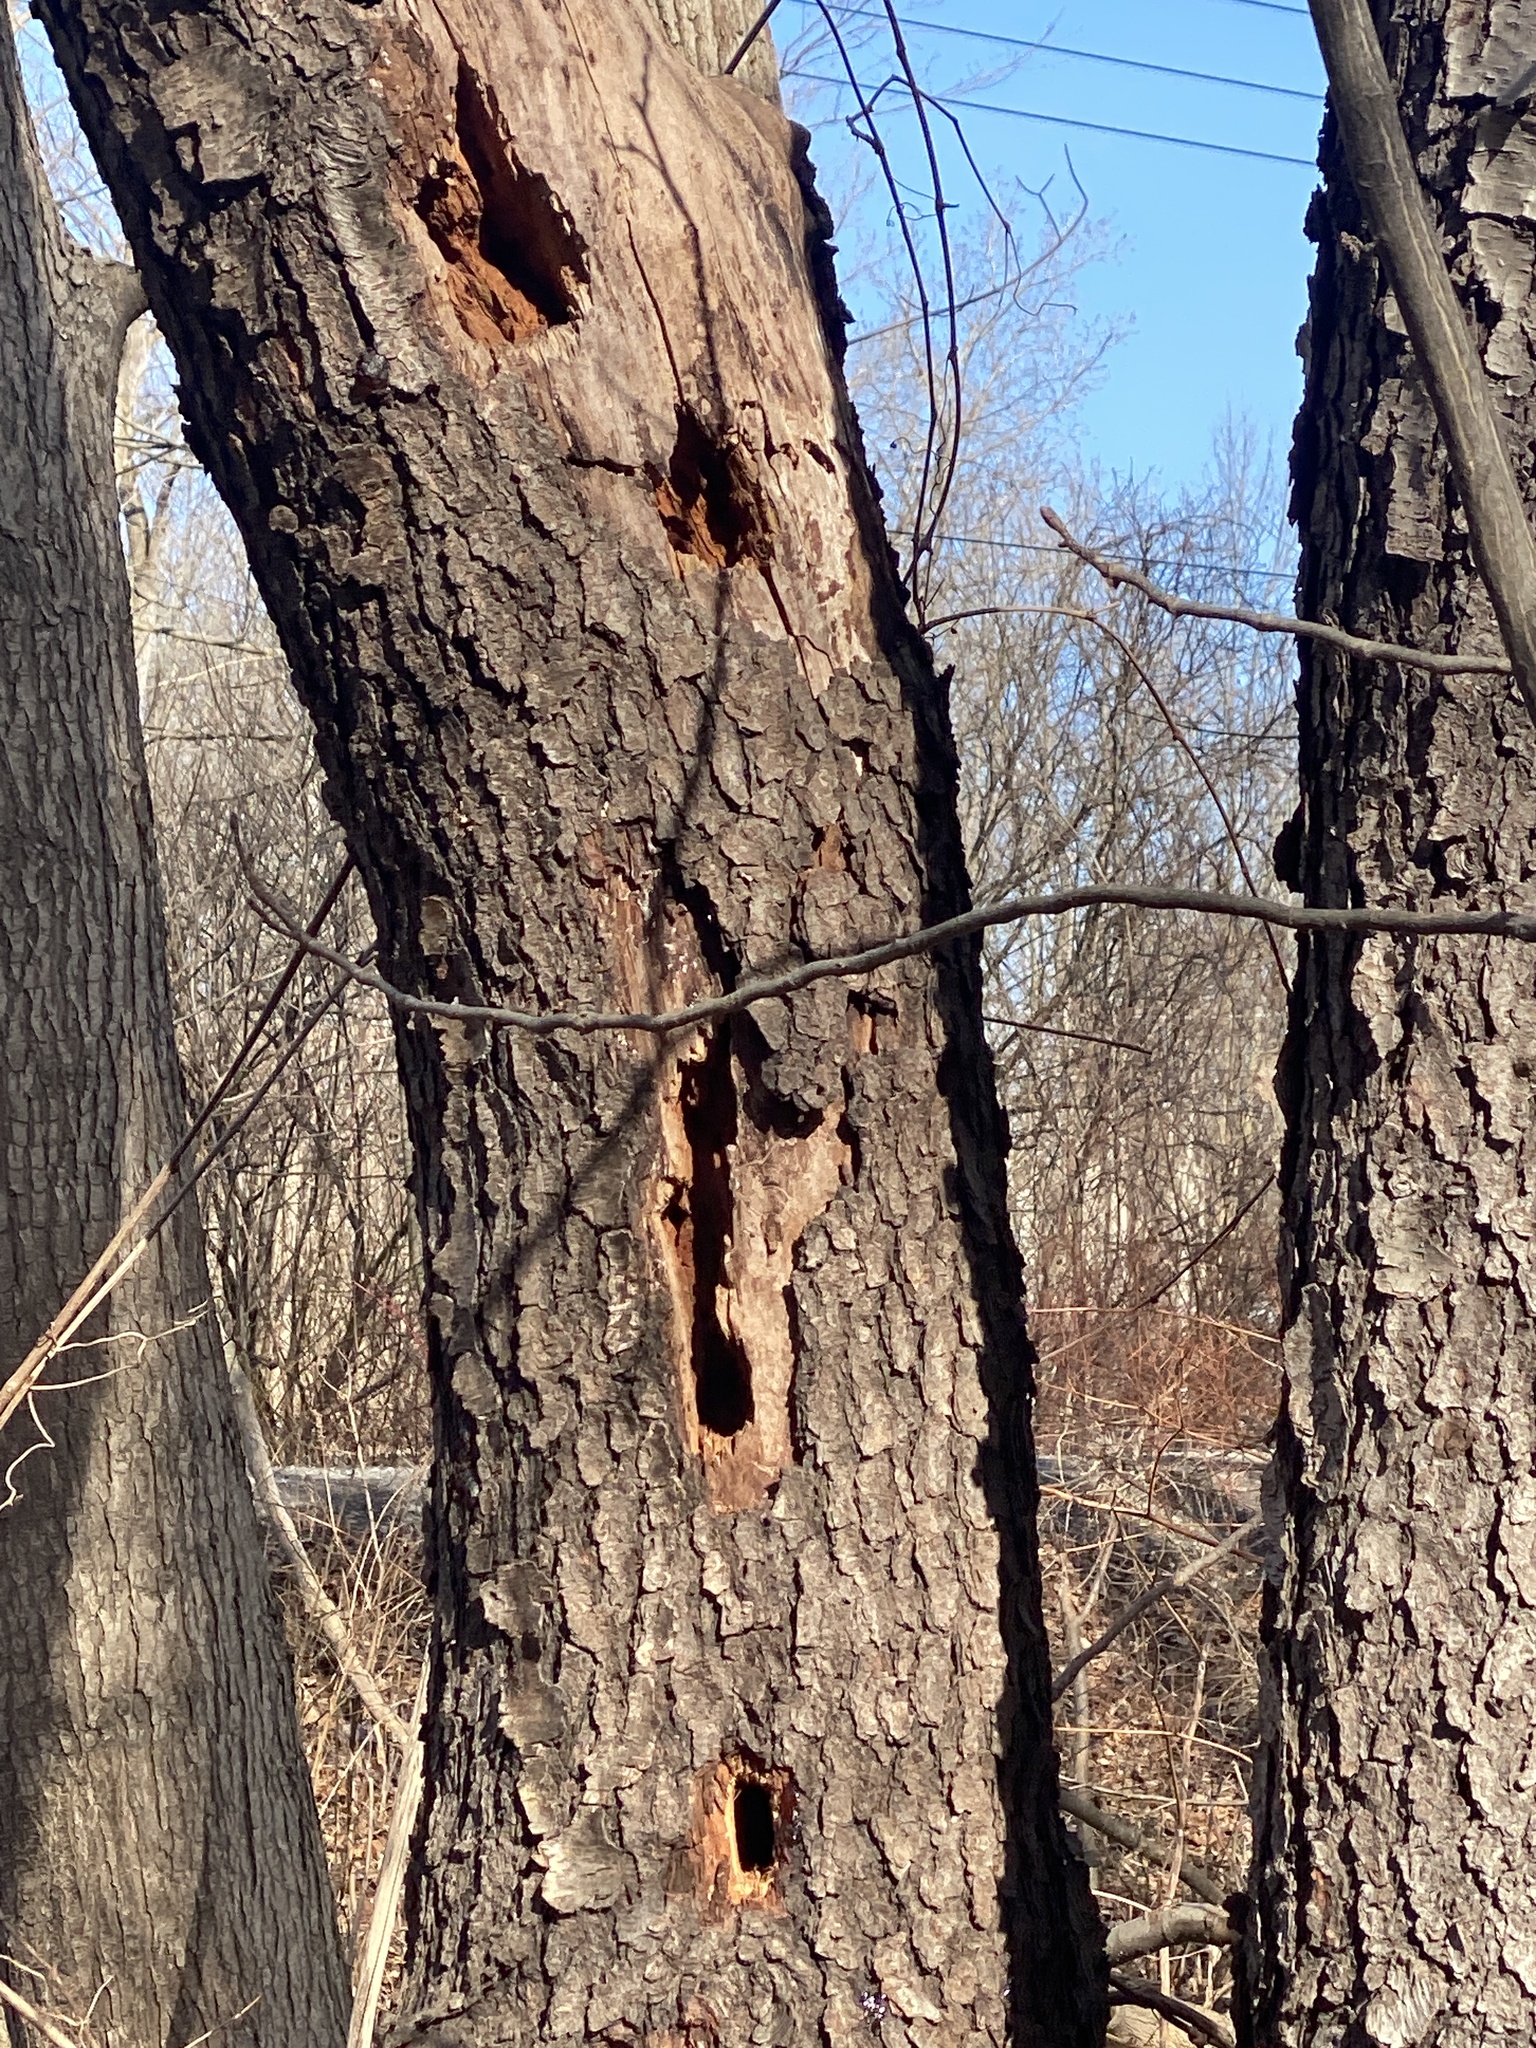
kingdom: Animalia
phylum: Chordata
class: Aves
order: Piciformes
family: Picidae
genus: Dryocopus
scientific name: Dryocopus pileatus
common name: Pileated woodpecker
